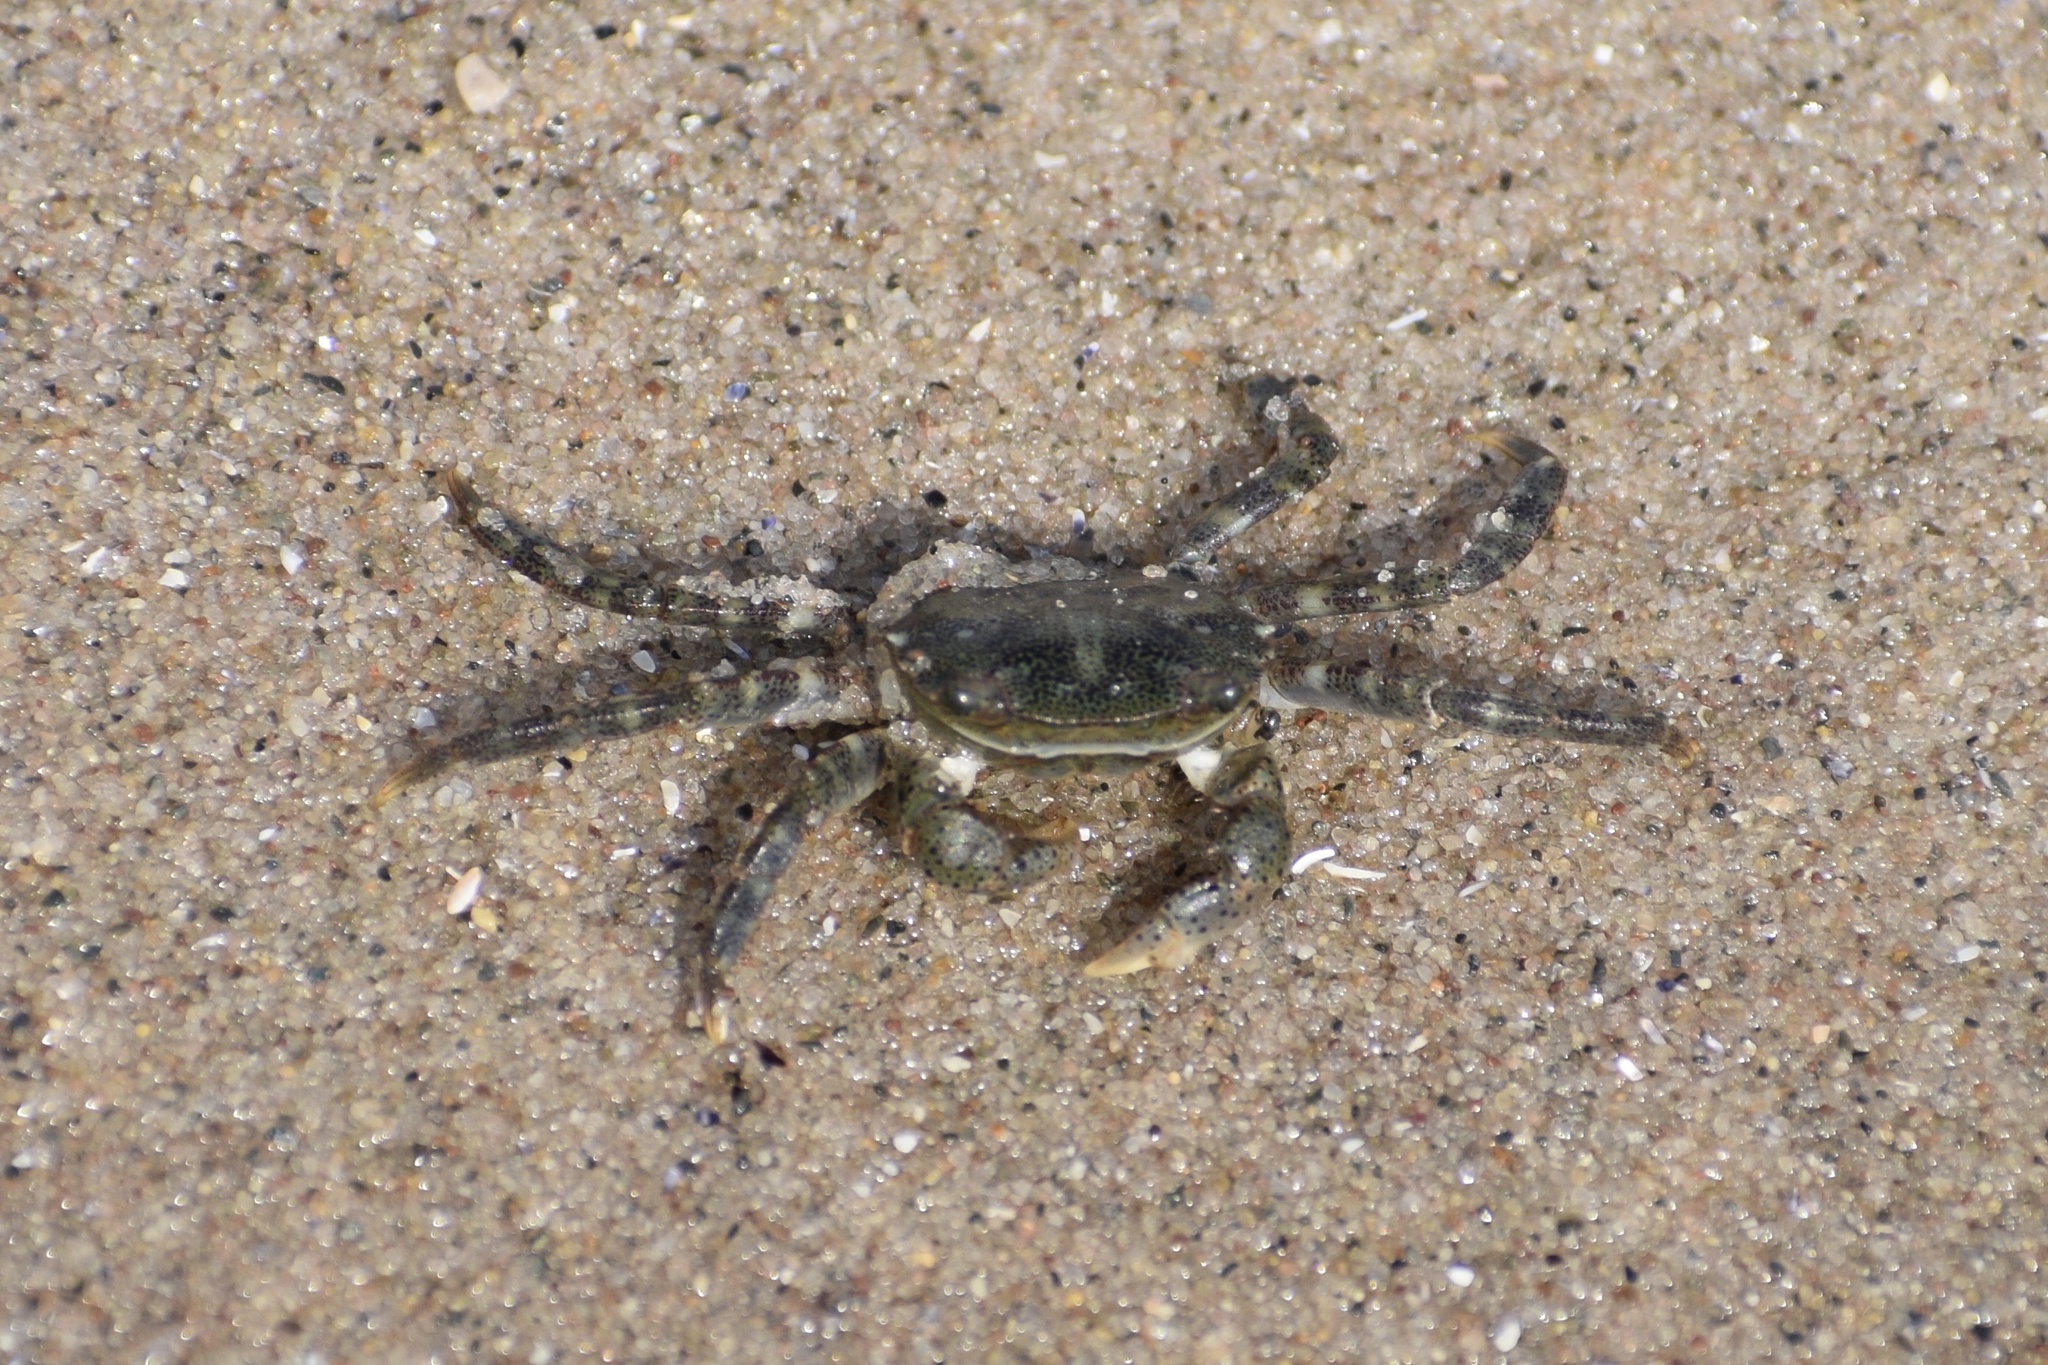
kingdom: Animalia
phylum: Arthropoda
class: Malacostraca
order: Decapoda
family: Varunidae
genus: Hemigrapsus
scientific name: Hemigrapsus sanguineus
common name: Asian shore crab
